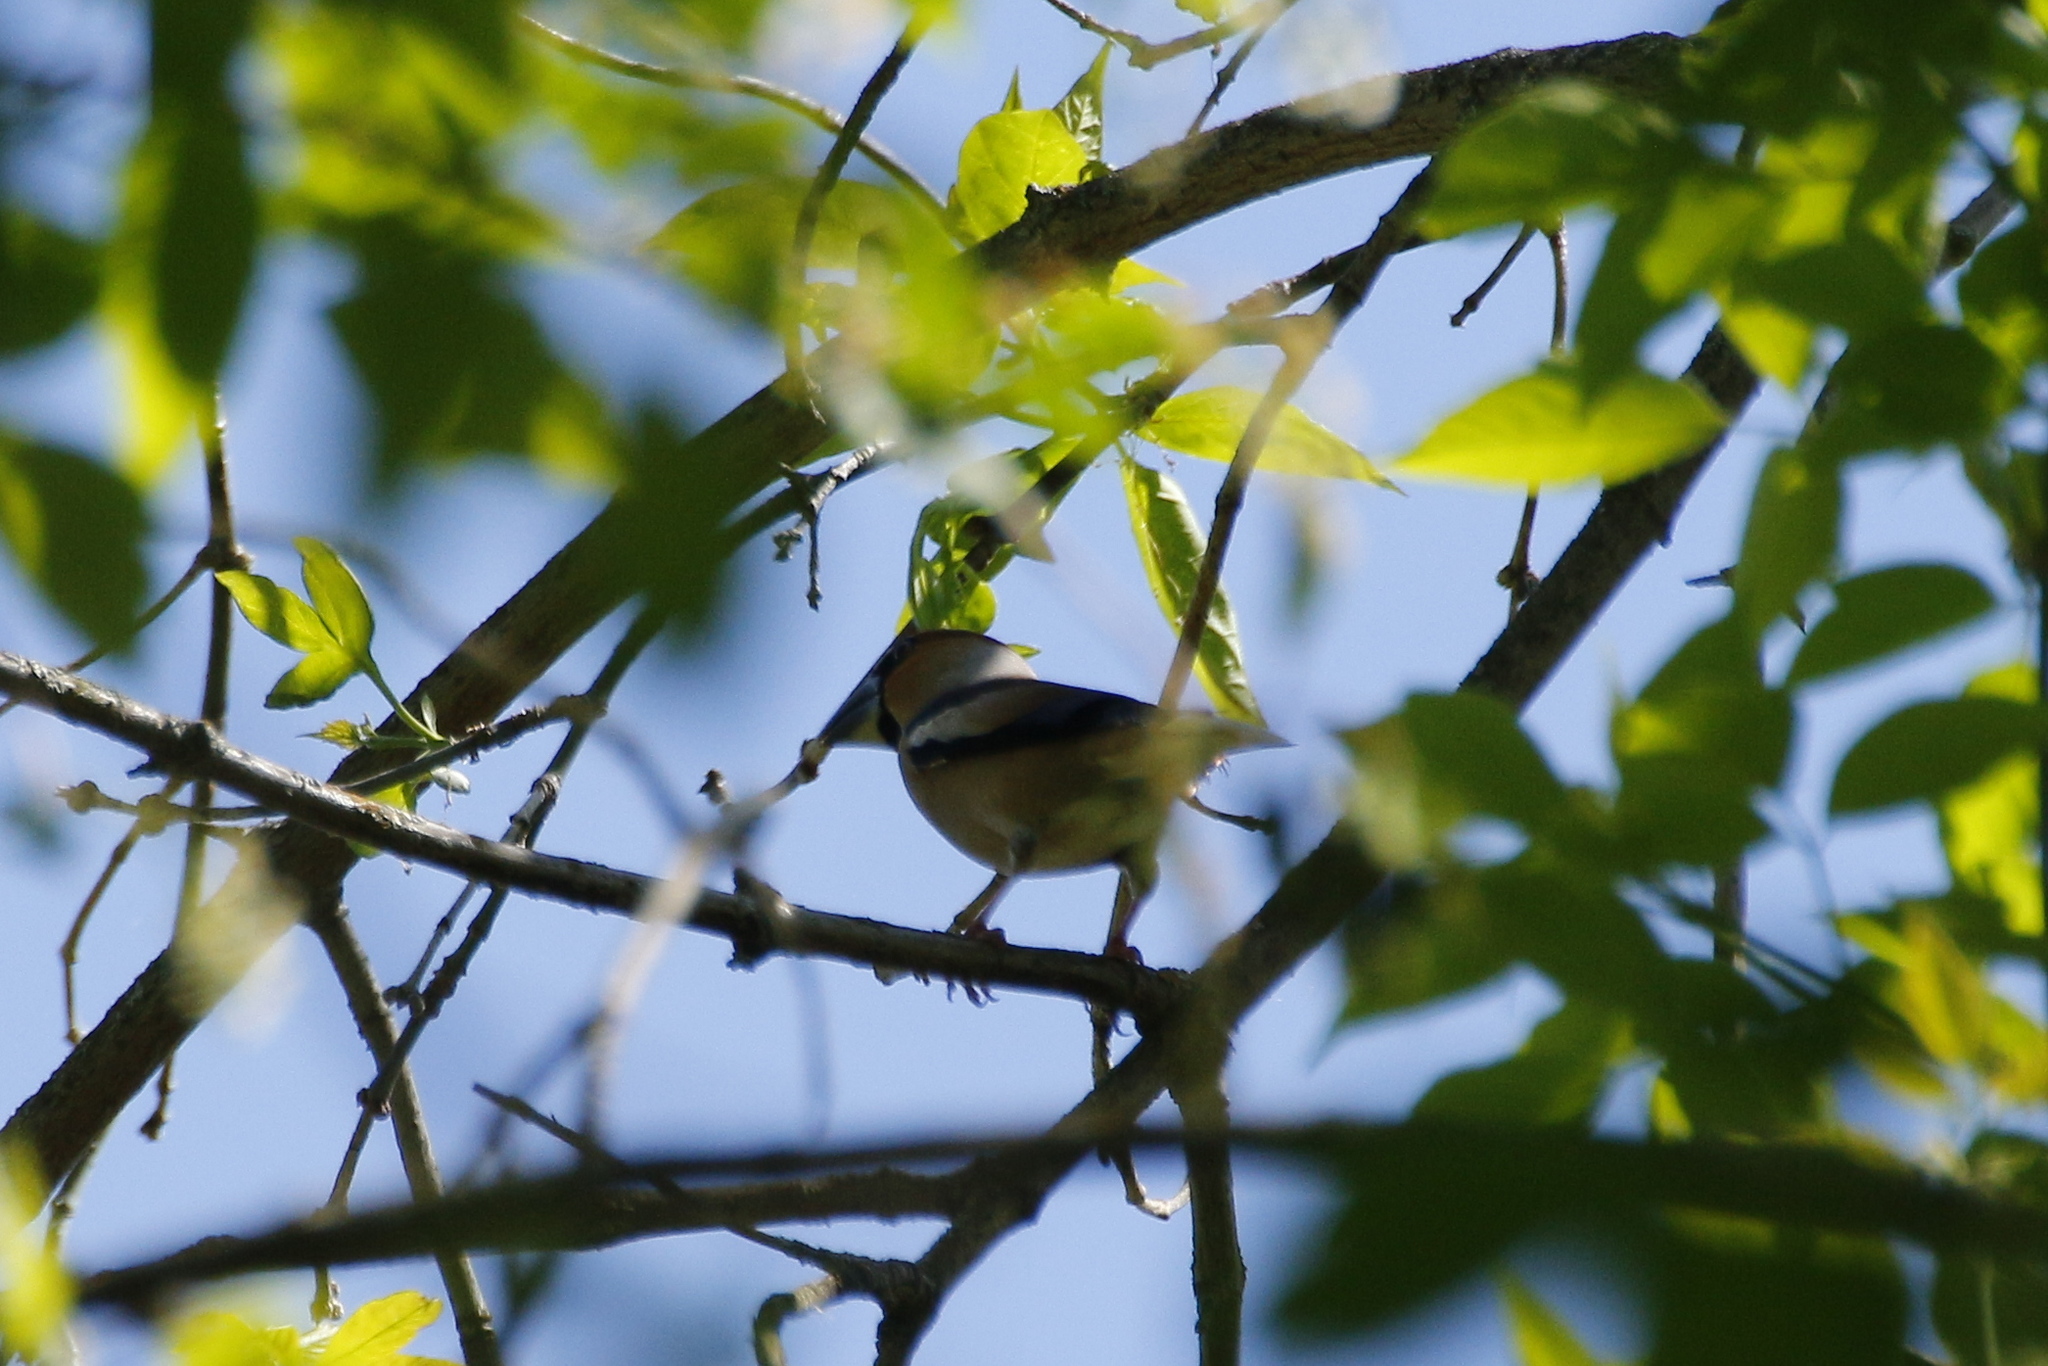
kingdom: Animalia
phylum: Chordata
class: Aves
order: Passeriformes
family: Fringillidae
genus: Coccothraustes
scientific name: Coccothraustes coccothraustes
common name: Hawfinch
